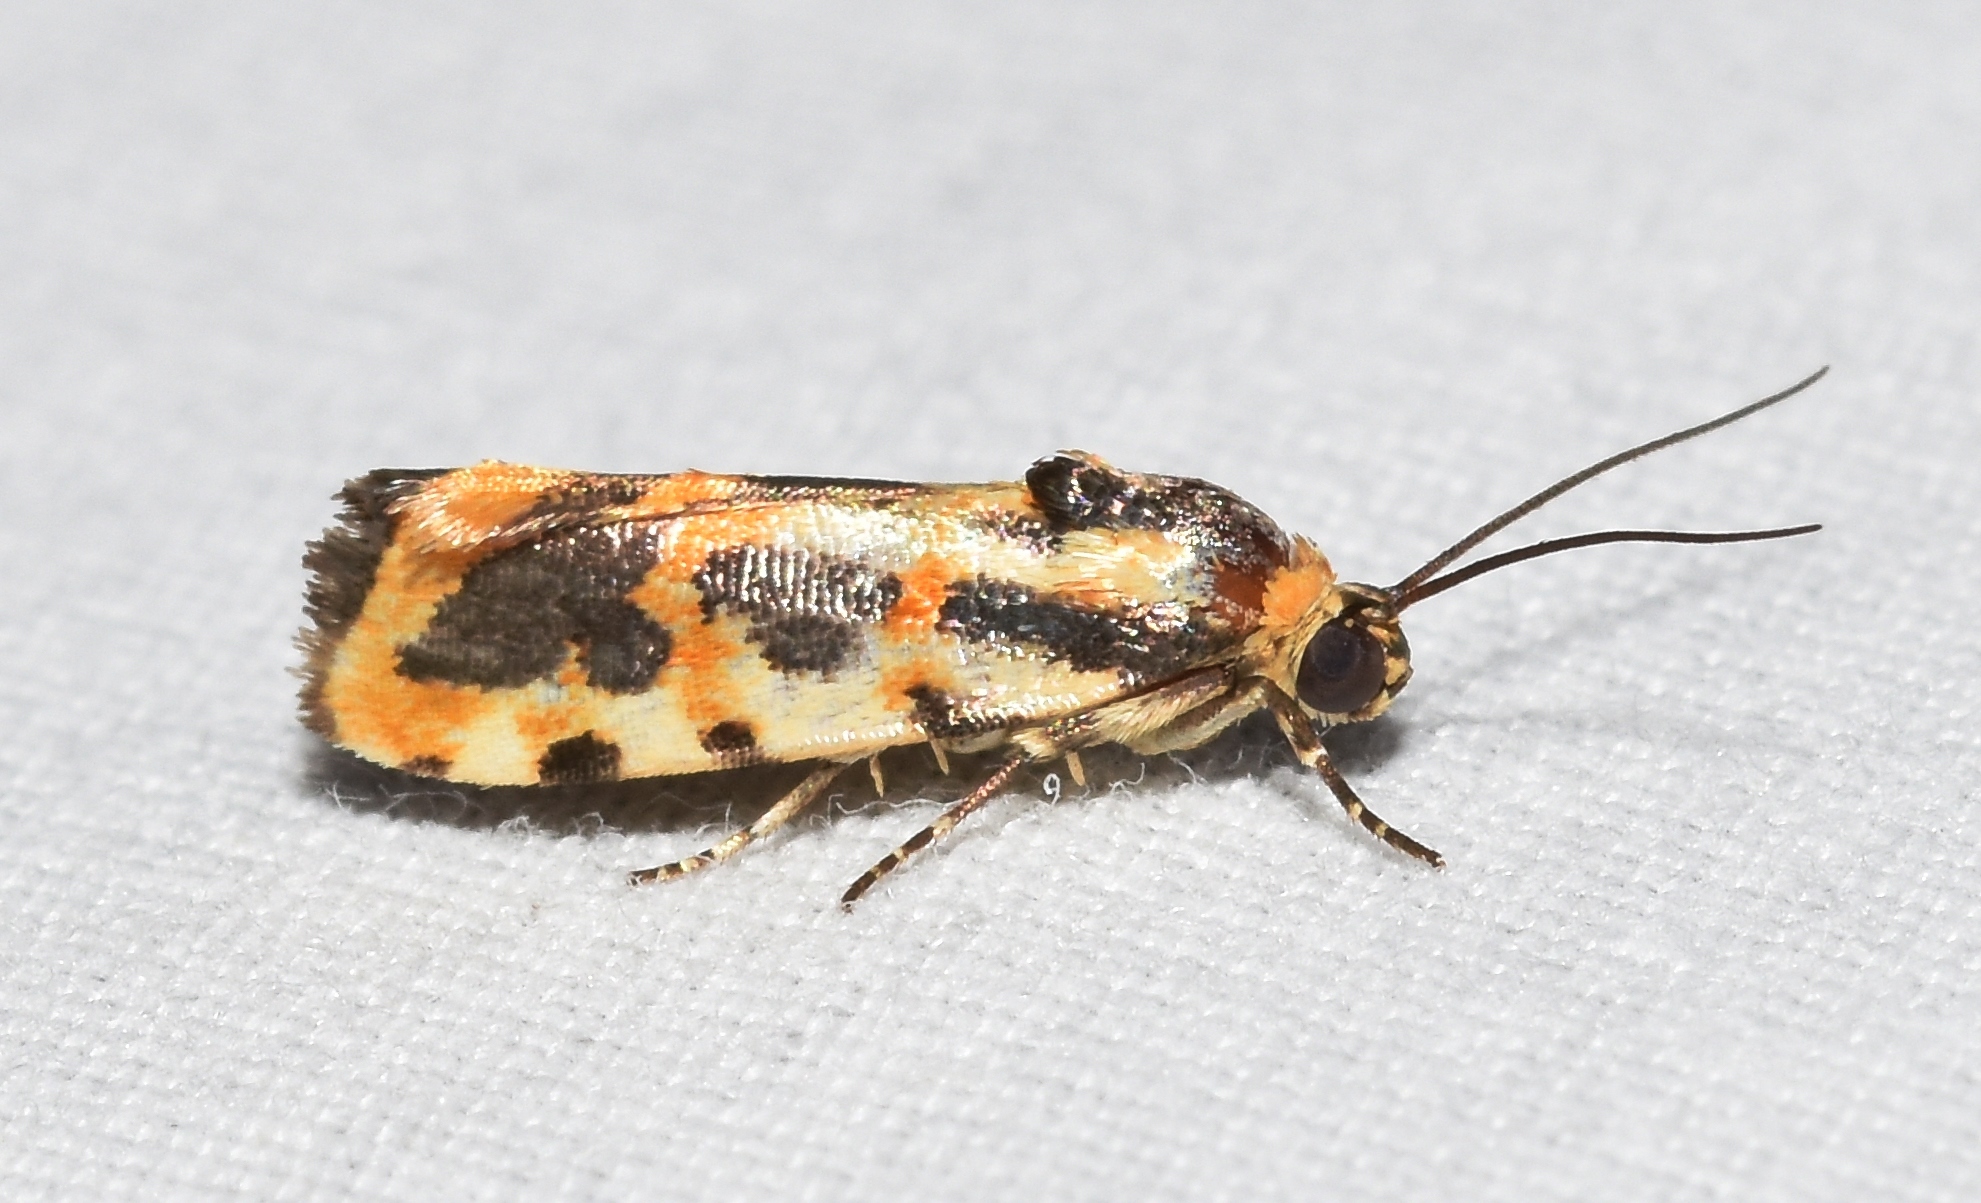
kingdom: Animalia
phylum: Arthropoda
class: Insecta
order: Lepidoptera
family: Noctuidae
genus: Acontia
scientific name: Acontia leo
